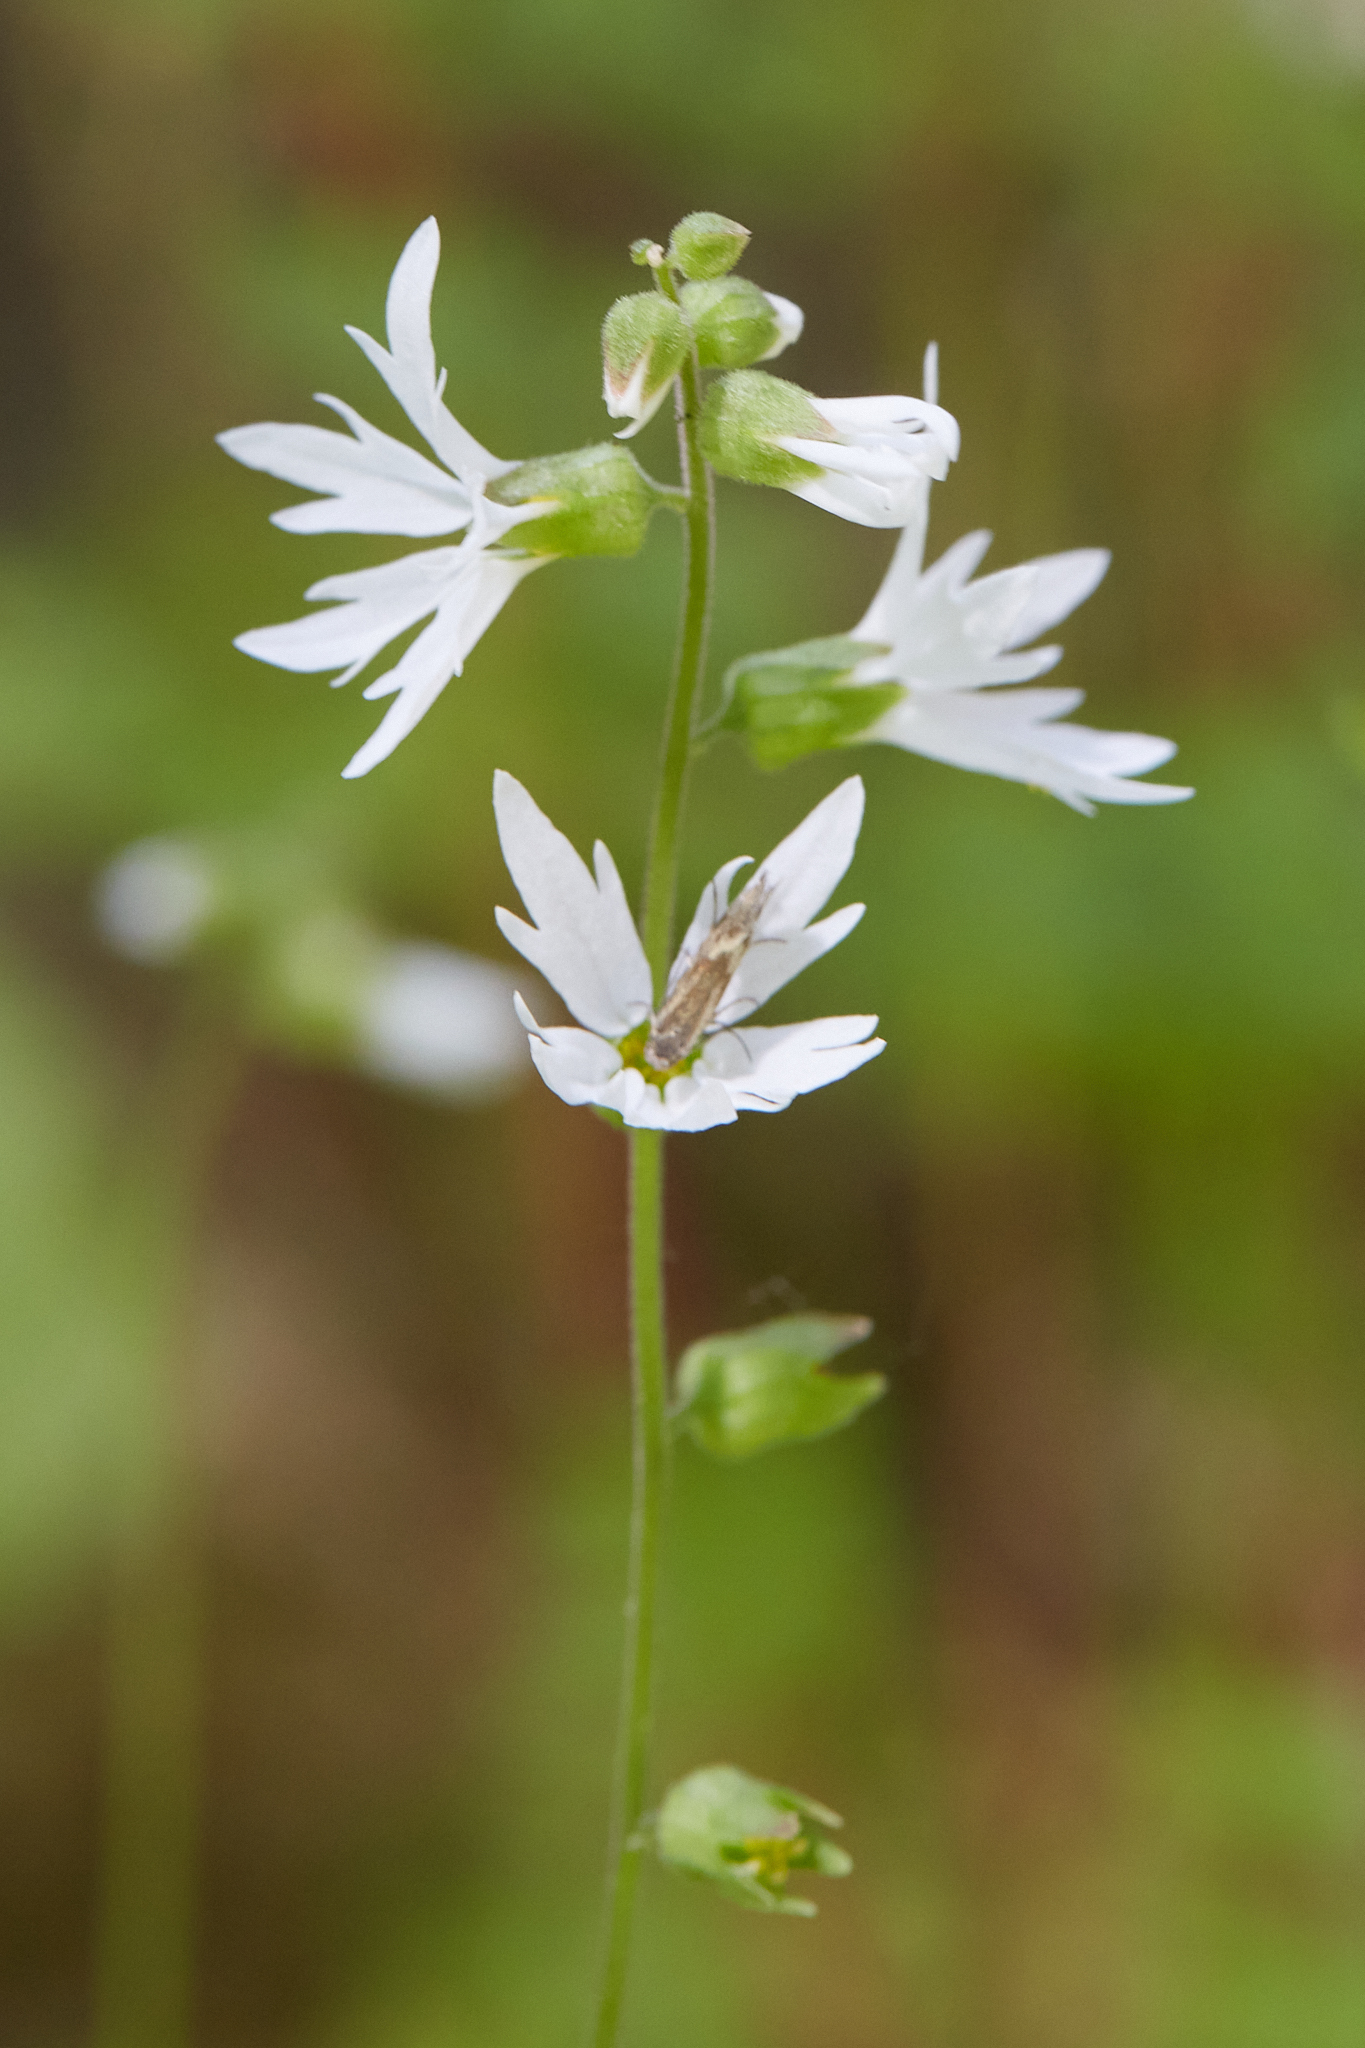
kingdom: Plantae
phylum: Tracheophyta
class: Magnoliopsida
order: Saxifragales
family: Saxifragaceae
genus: Lithophragma
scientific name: Lithophragma heterophyllum
